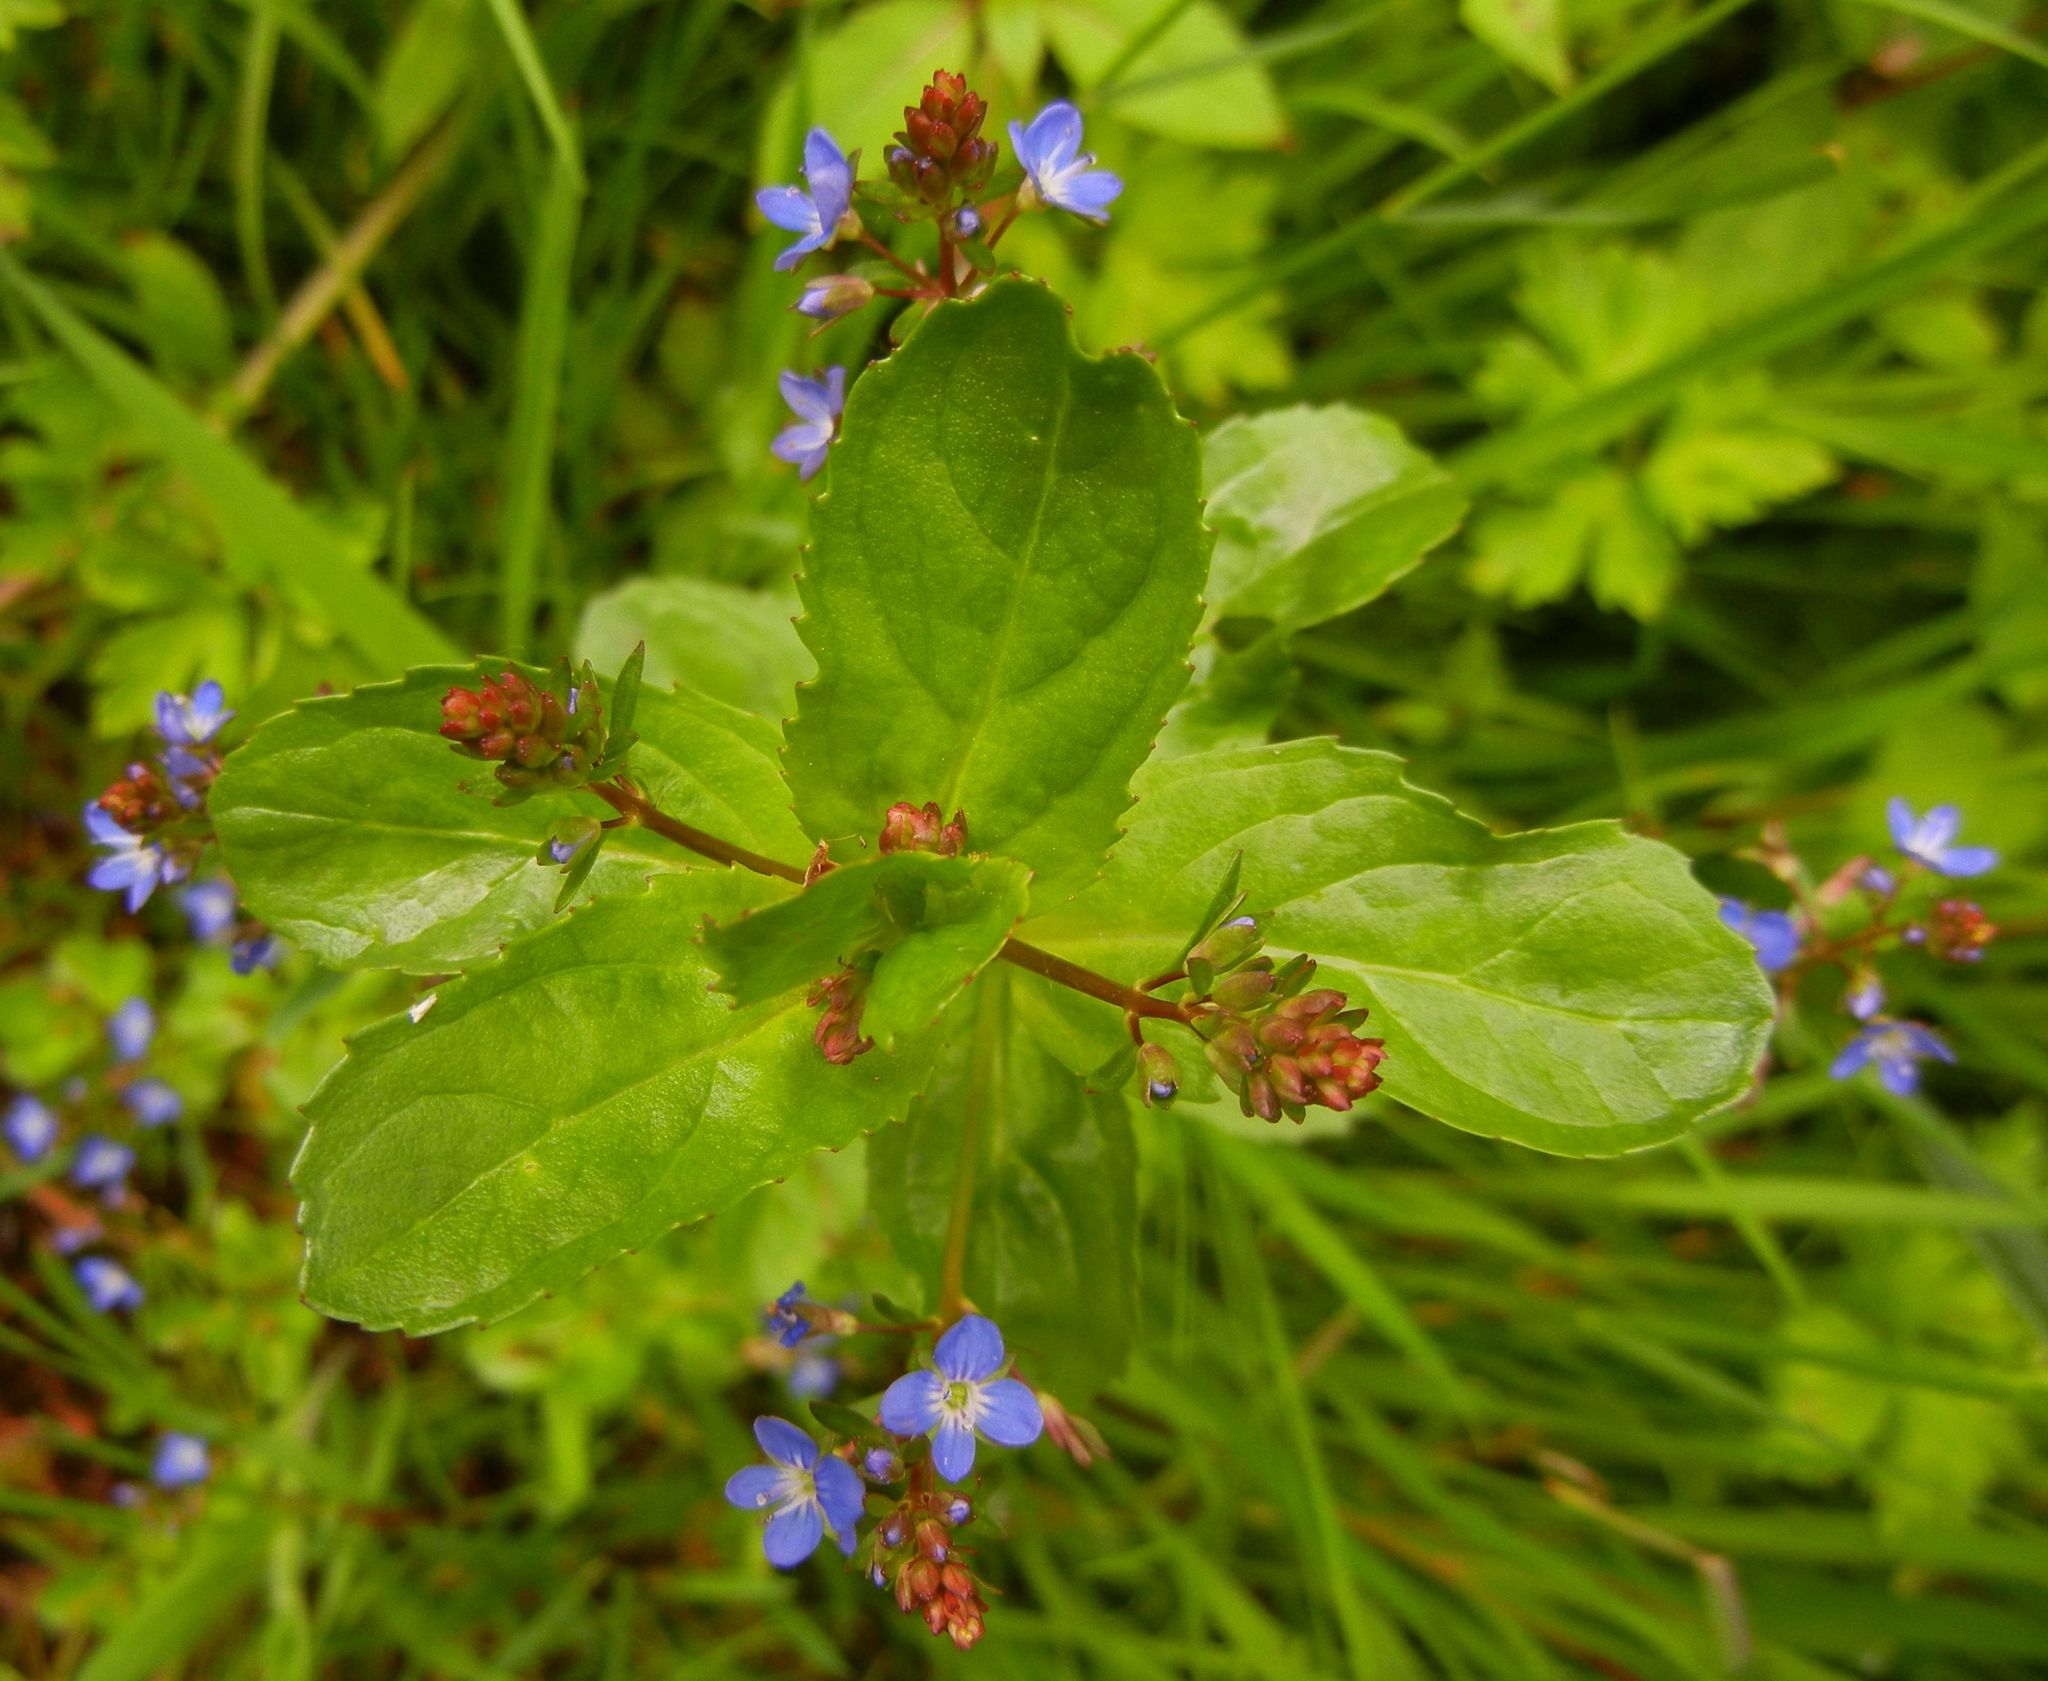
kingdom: Plantae
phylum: Tracheophyta
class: Magnoliopsida
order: Lamiales
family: Plantaginaceae
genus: Veronica
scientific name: Veronica beccabunga
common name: Brooklime
